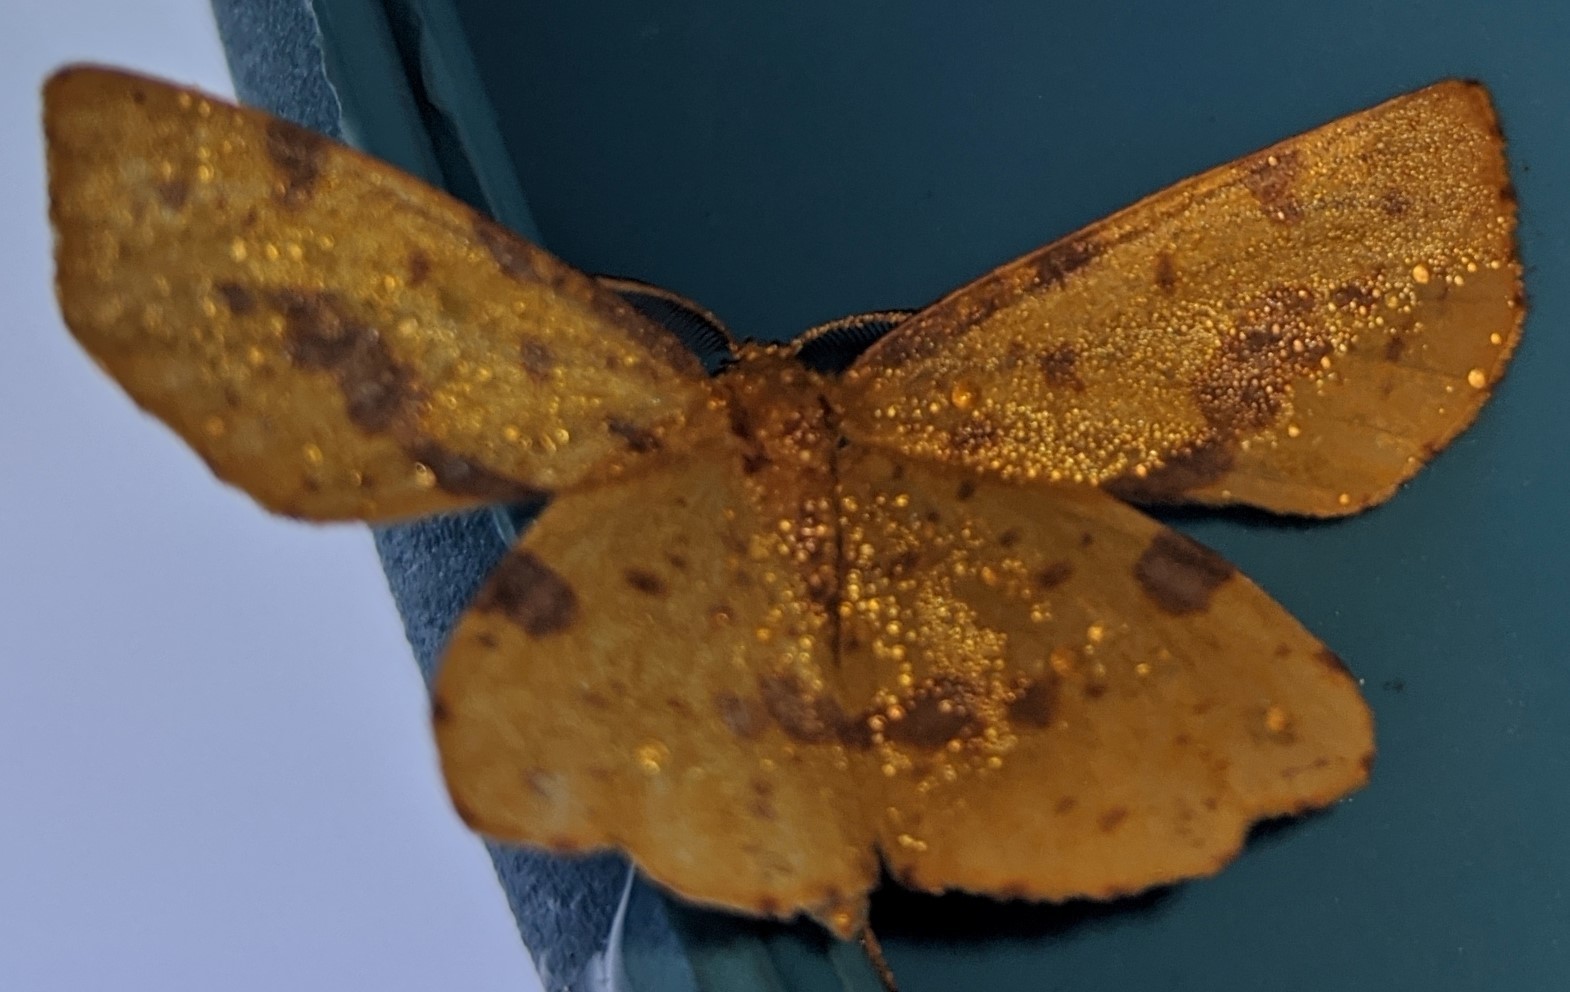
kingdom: Animalia
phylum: Arthropoda
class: Insecta
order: Lepidoptera
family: Geometridae
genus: Xanthotype
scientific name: Xanthotype
